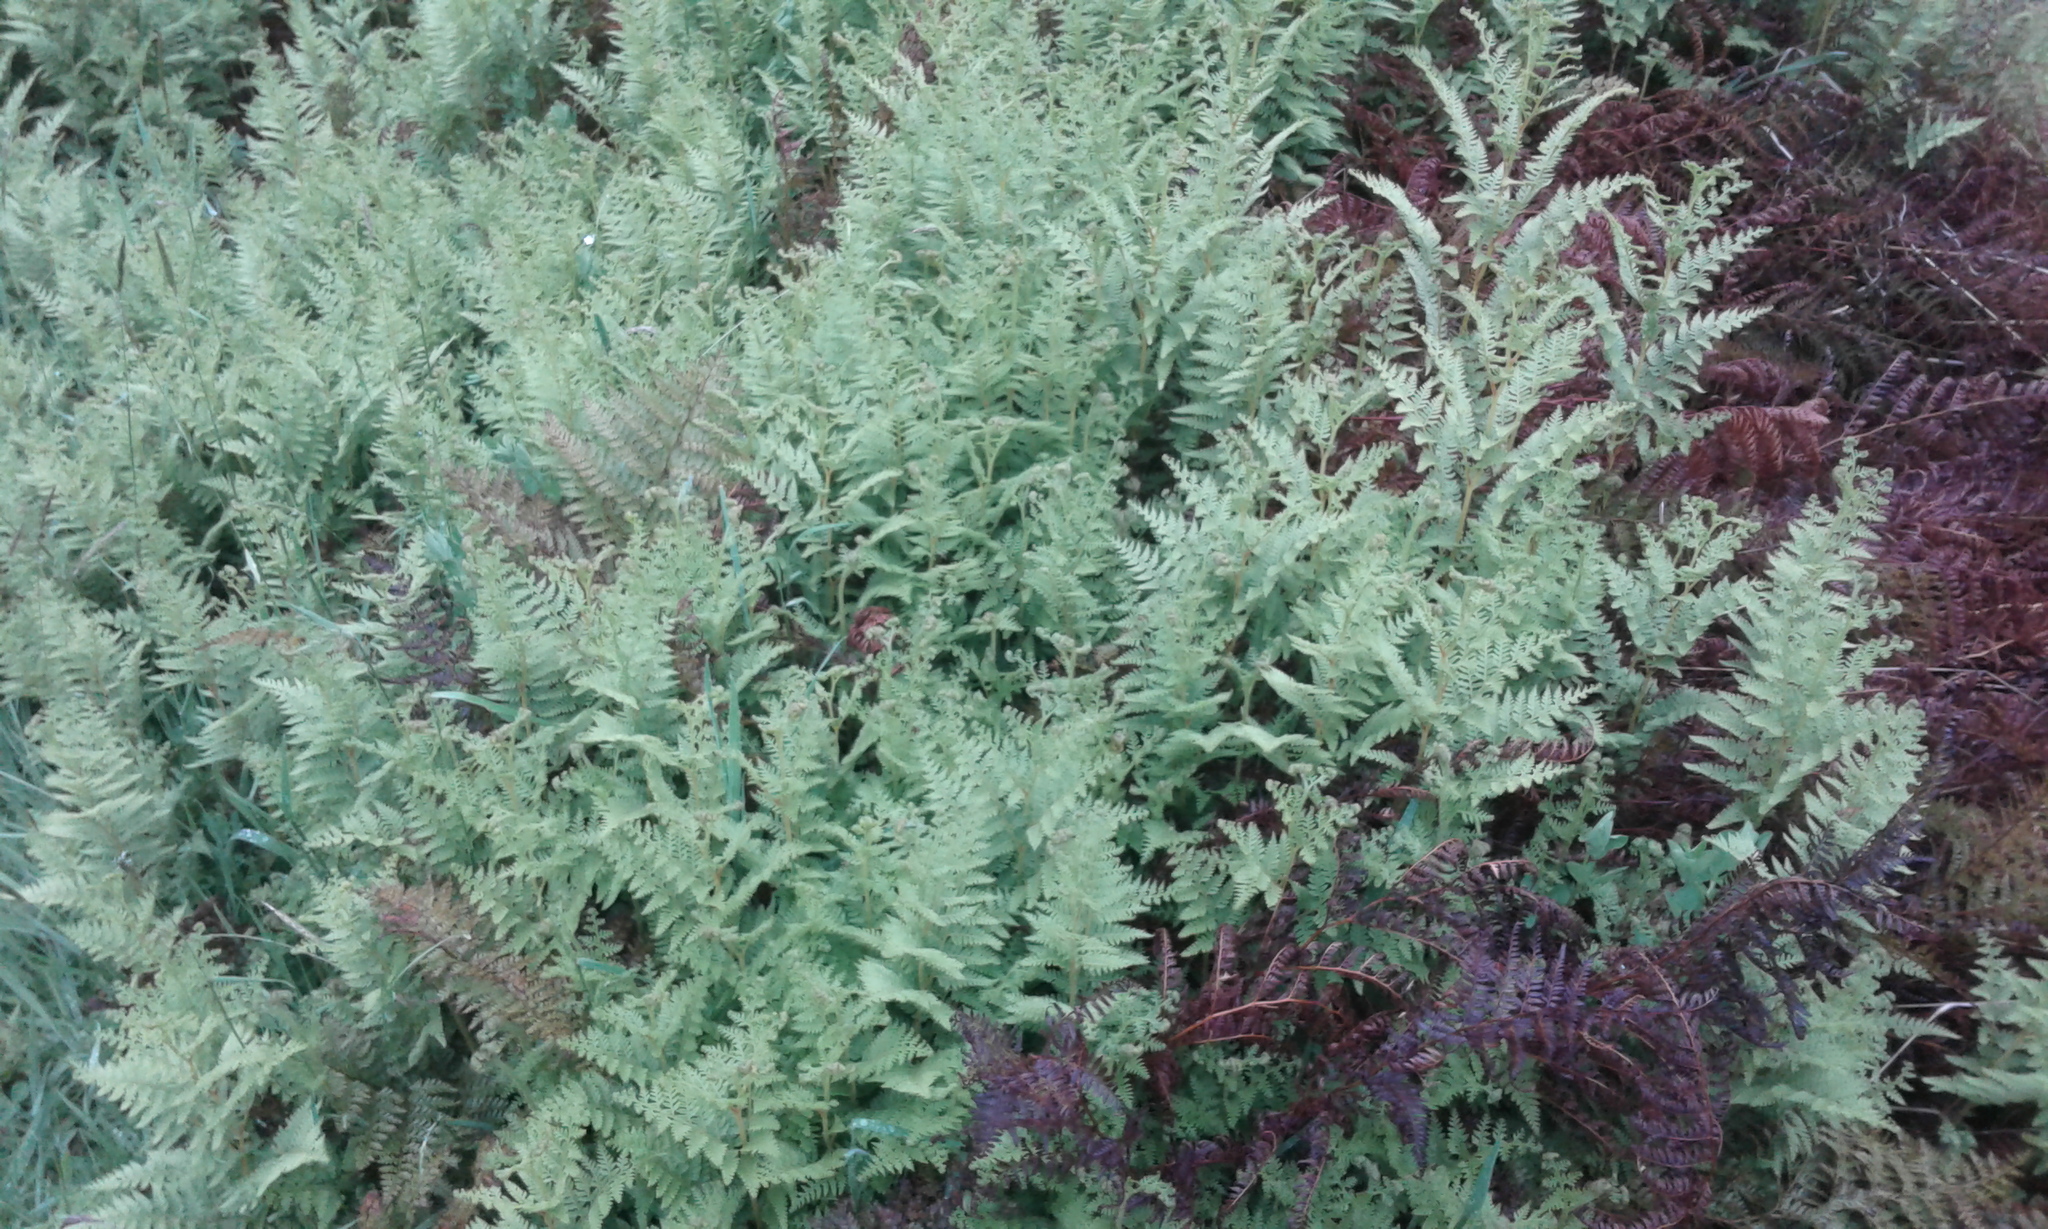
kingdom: Plantae
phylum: Tracheophyta
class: Polypodiopsida
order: Polypodiales
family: Dennstaedtiaceae
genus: Paesia
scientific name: Paesia scaberula
